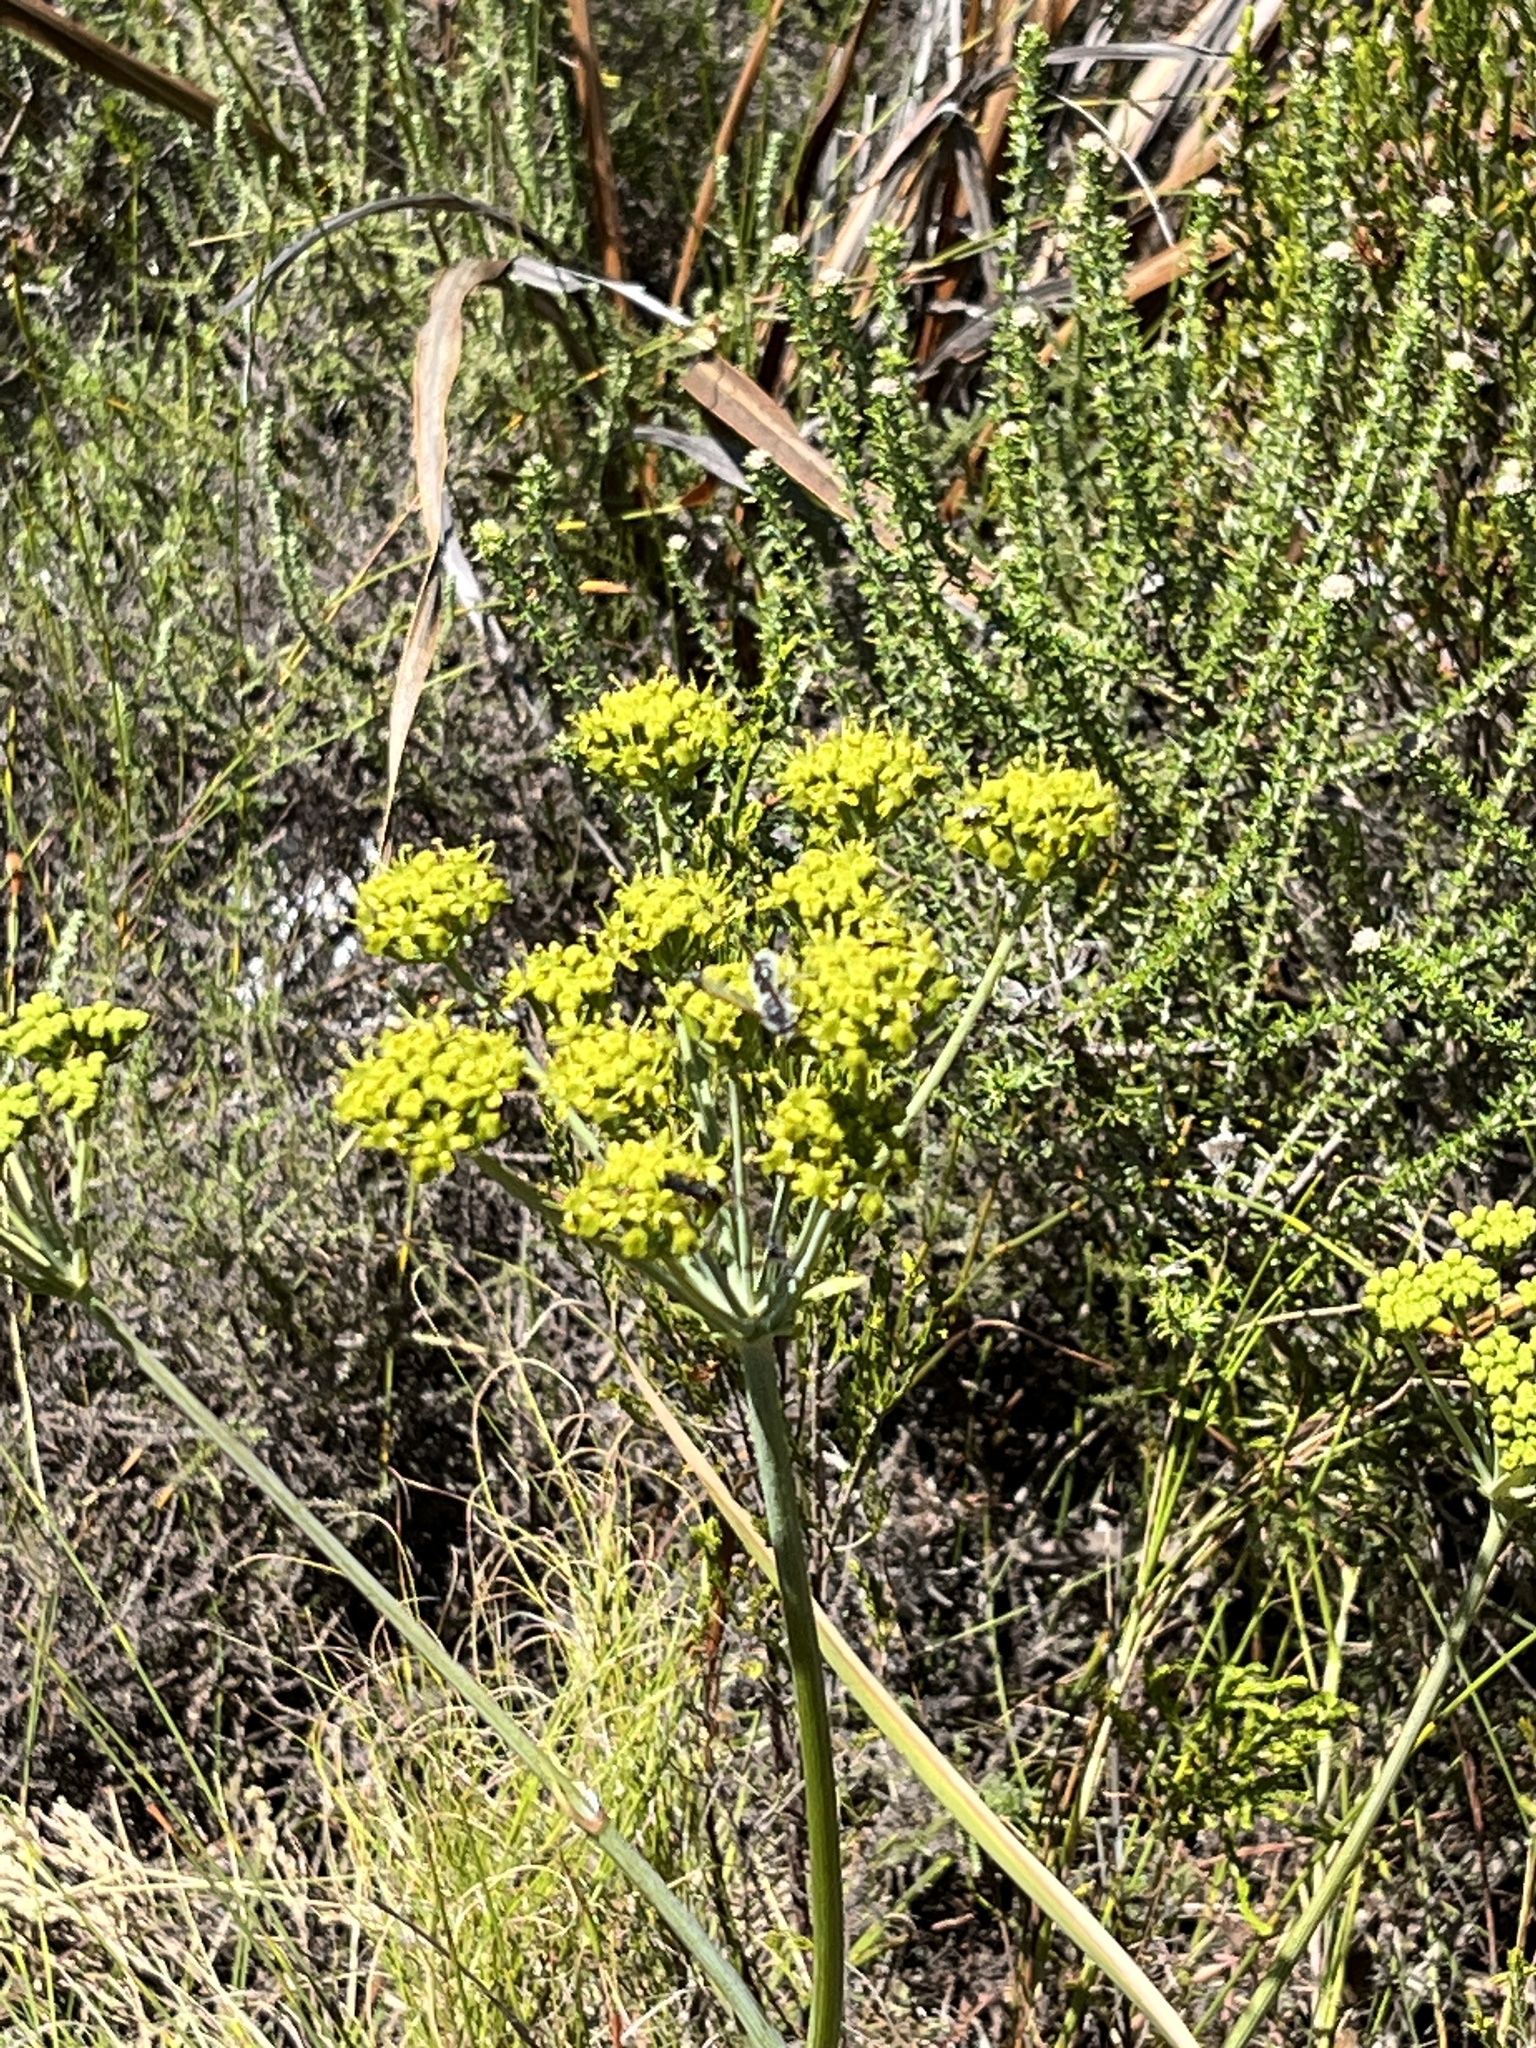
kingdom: Plantae
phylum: Tracheophyta
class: Magnoliopsida
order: Apiales
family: Apiaceae
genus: Lichtensteinia
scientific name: Lichtensteinia lacera
